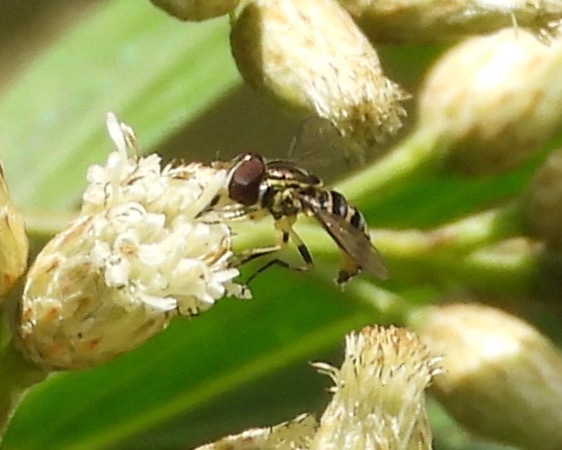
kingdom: Animalia
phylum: Arthropoda
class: Insecta
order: Diptera
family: Syrphidae
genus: Toxomerus
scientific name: Toxomerus politus
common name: Maize calligrapher
